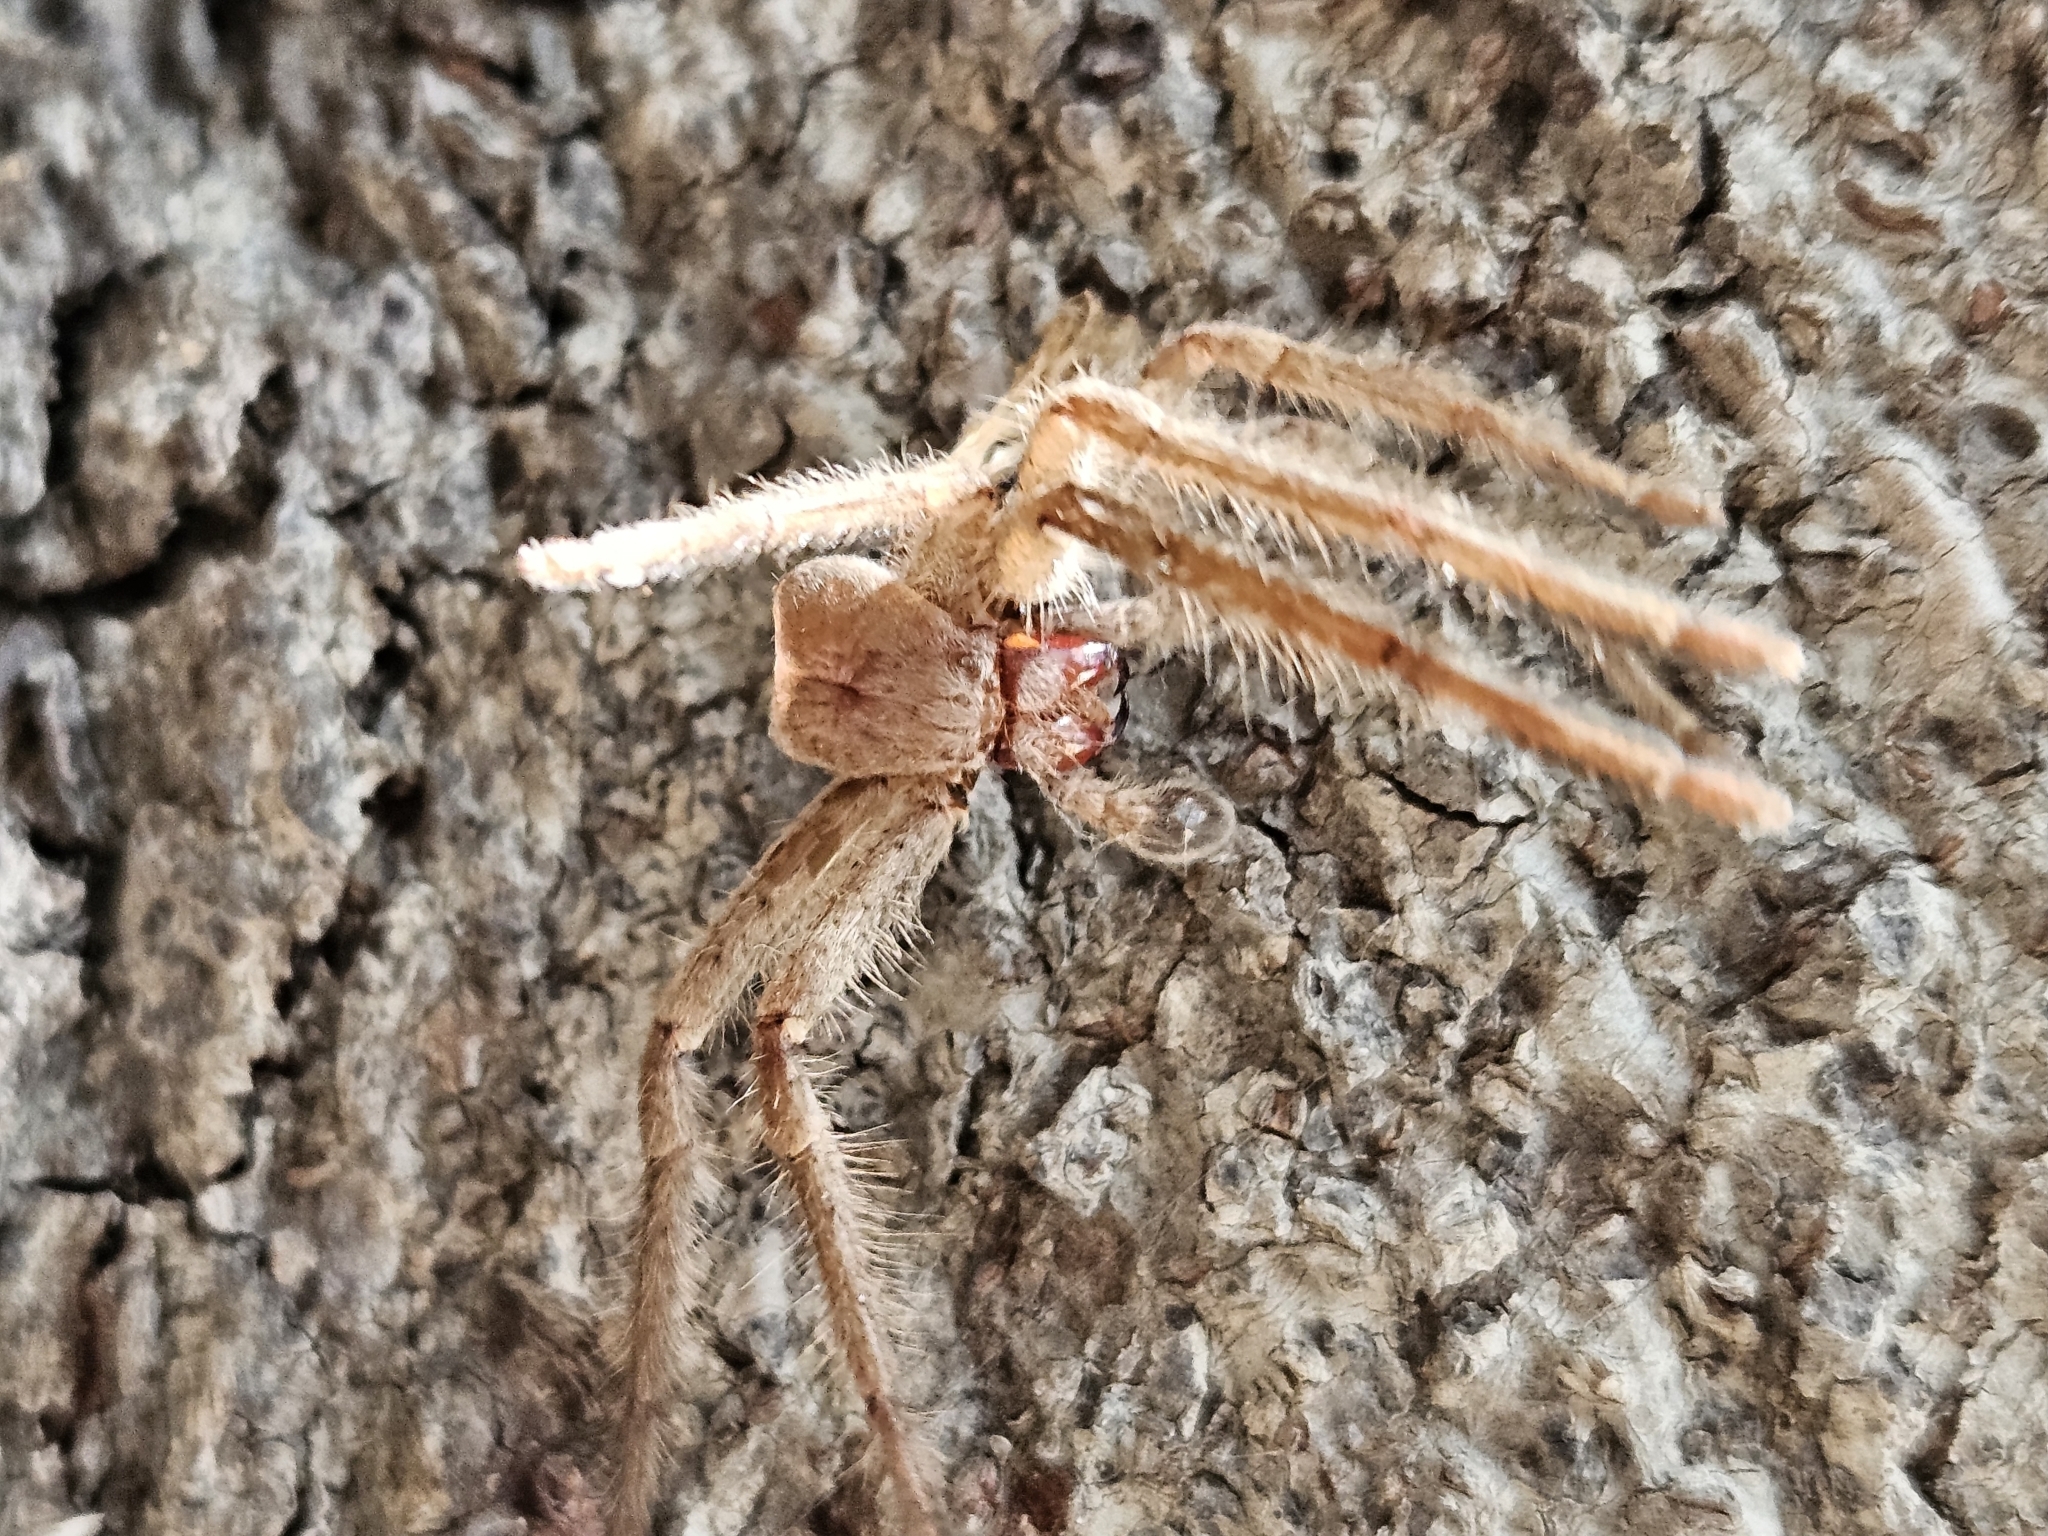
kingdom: Animalia
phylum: Arthropoda
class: Arachnida
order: Araneae
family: Sparassidae
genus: Isopeda
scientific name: Isopeda villosa
